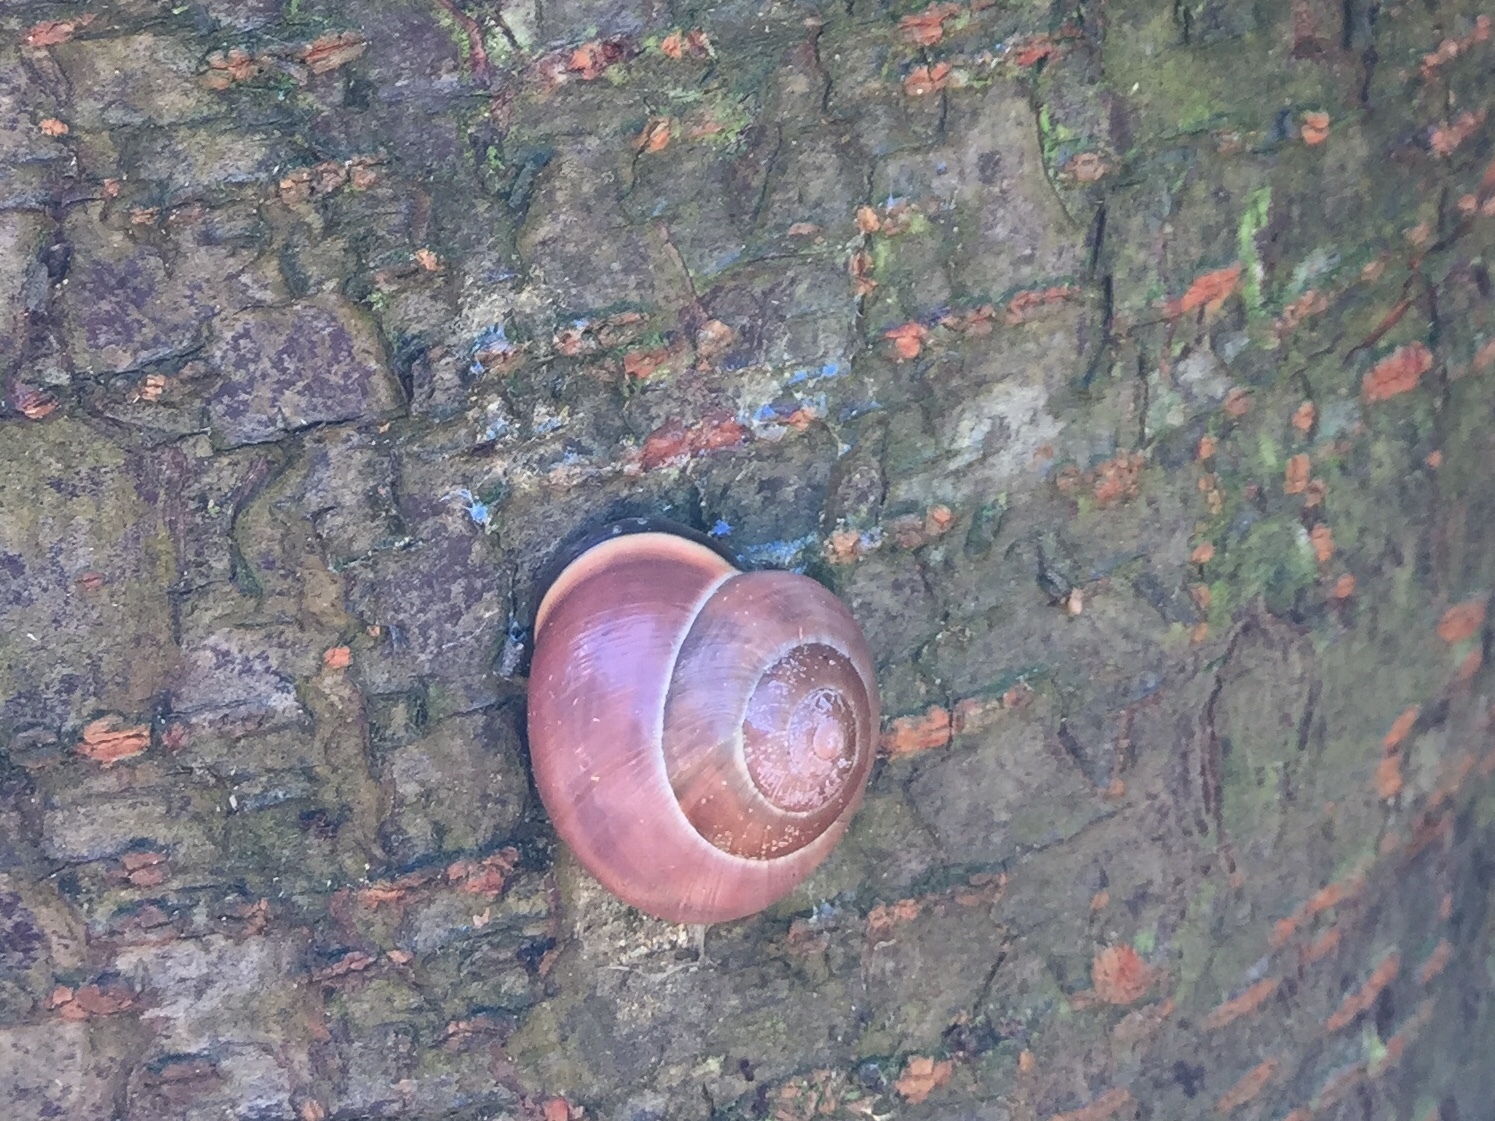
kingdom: Animalia
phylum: Mollusca
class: Gastropoda
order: Stylommatophora
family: Helicidae
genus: Cepaea
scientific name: Cepaea nemoralis
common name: Grovesnail
